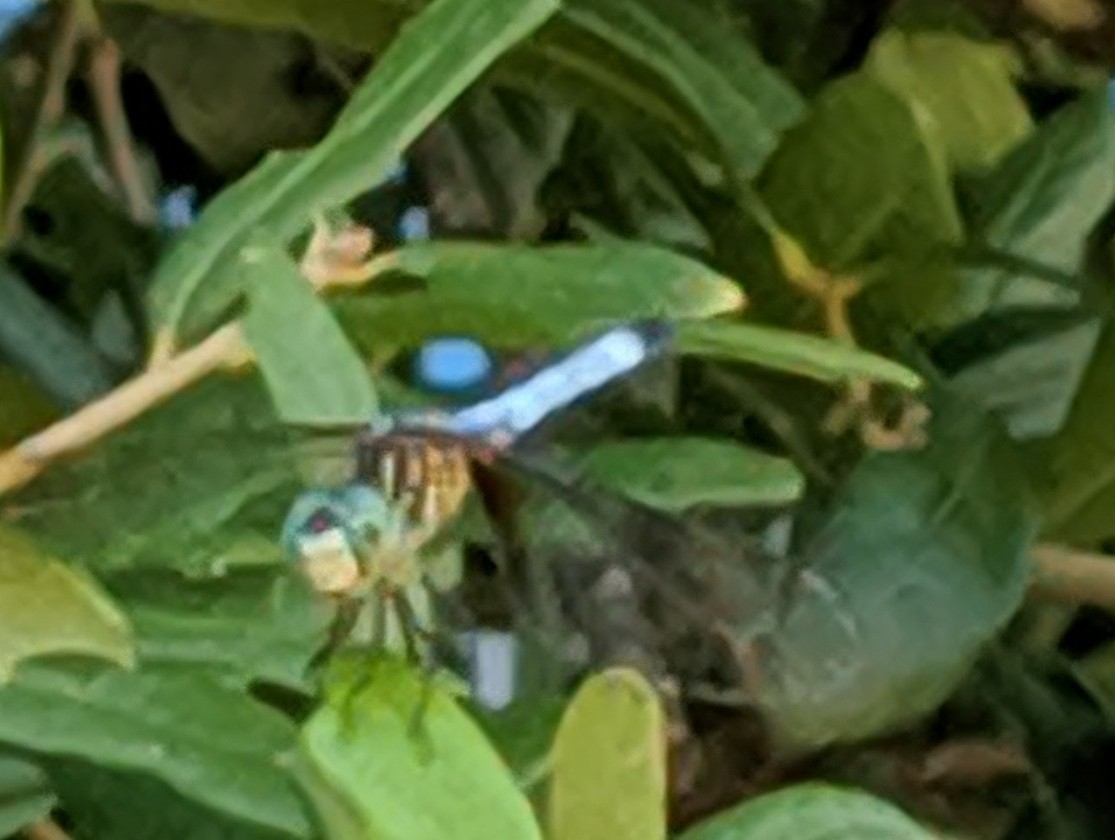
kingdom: Animalia
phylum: Arthropoda
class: Insecta
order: Odonata
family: Libellulidae
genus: Pachydiplax
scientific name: Pachydiplax longipennis
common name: Blue dasher
